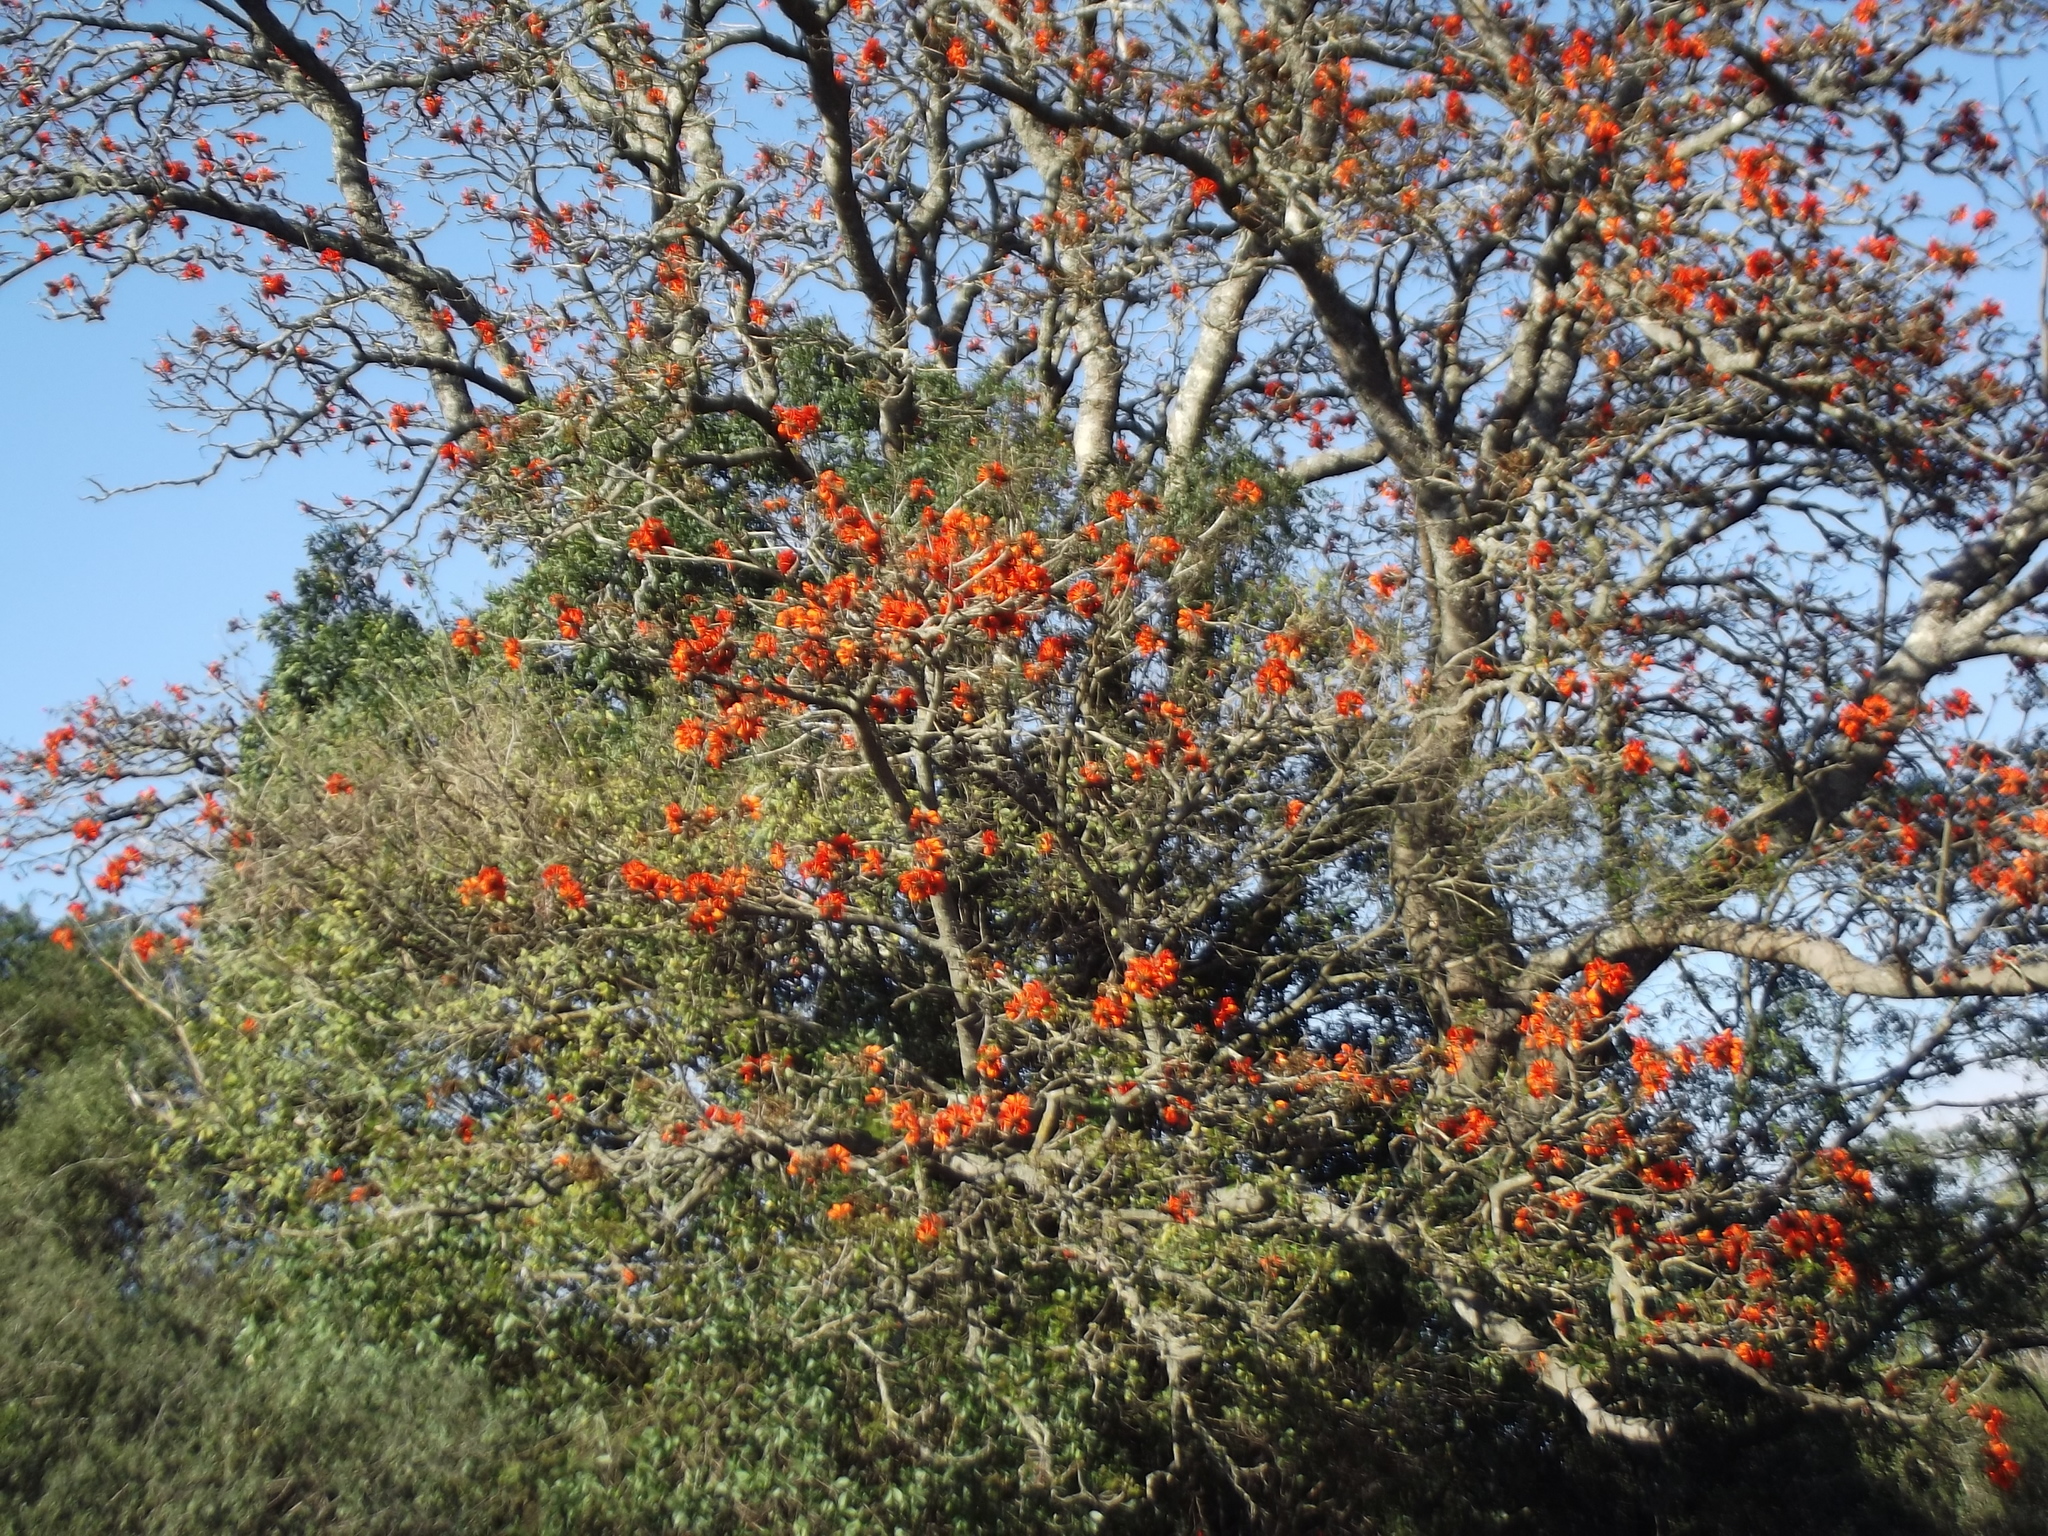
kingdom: Plantae
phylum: Tracheophyta
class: Magnoliopsida
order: Fabales
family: Fabaceae
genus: Erythrina
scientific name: Erythrina caffra
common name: Coast coral tree
